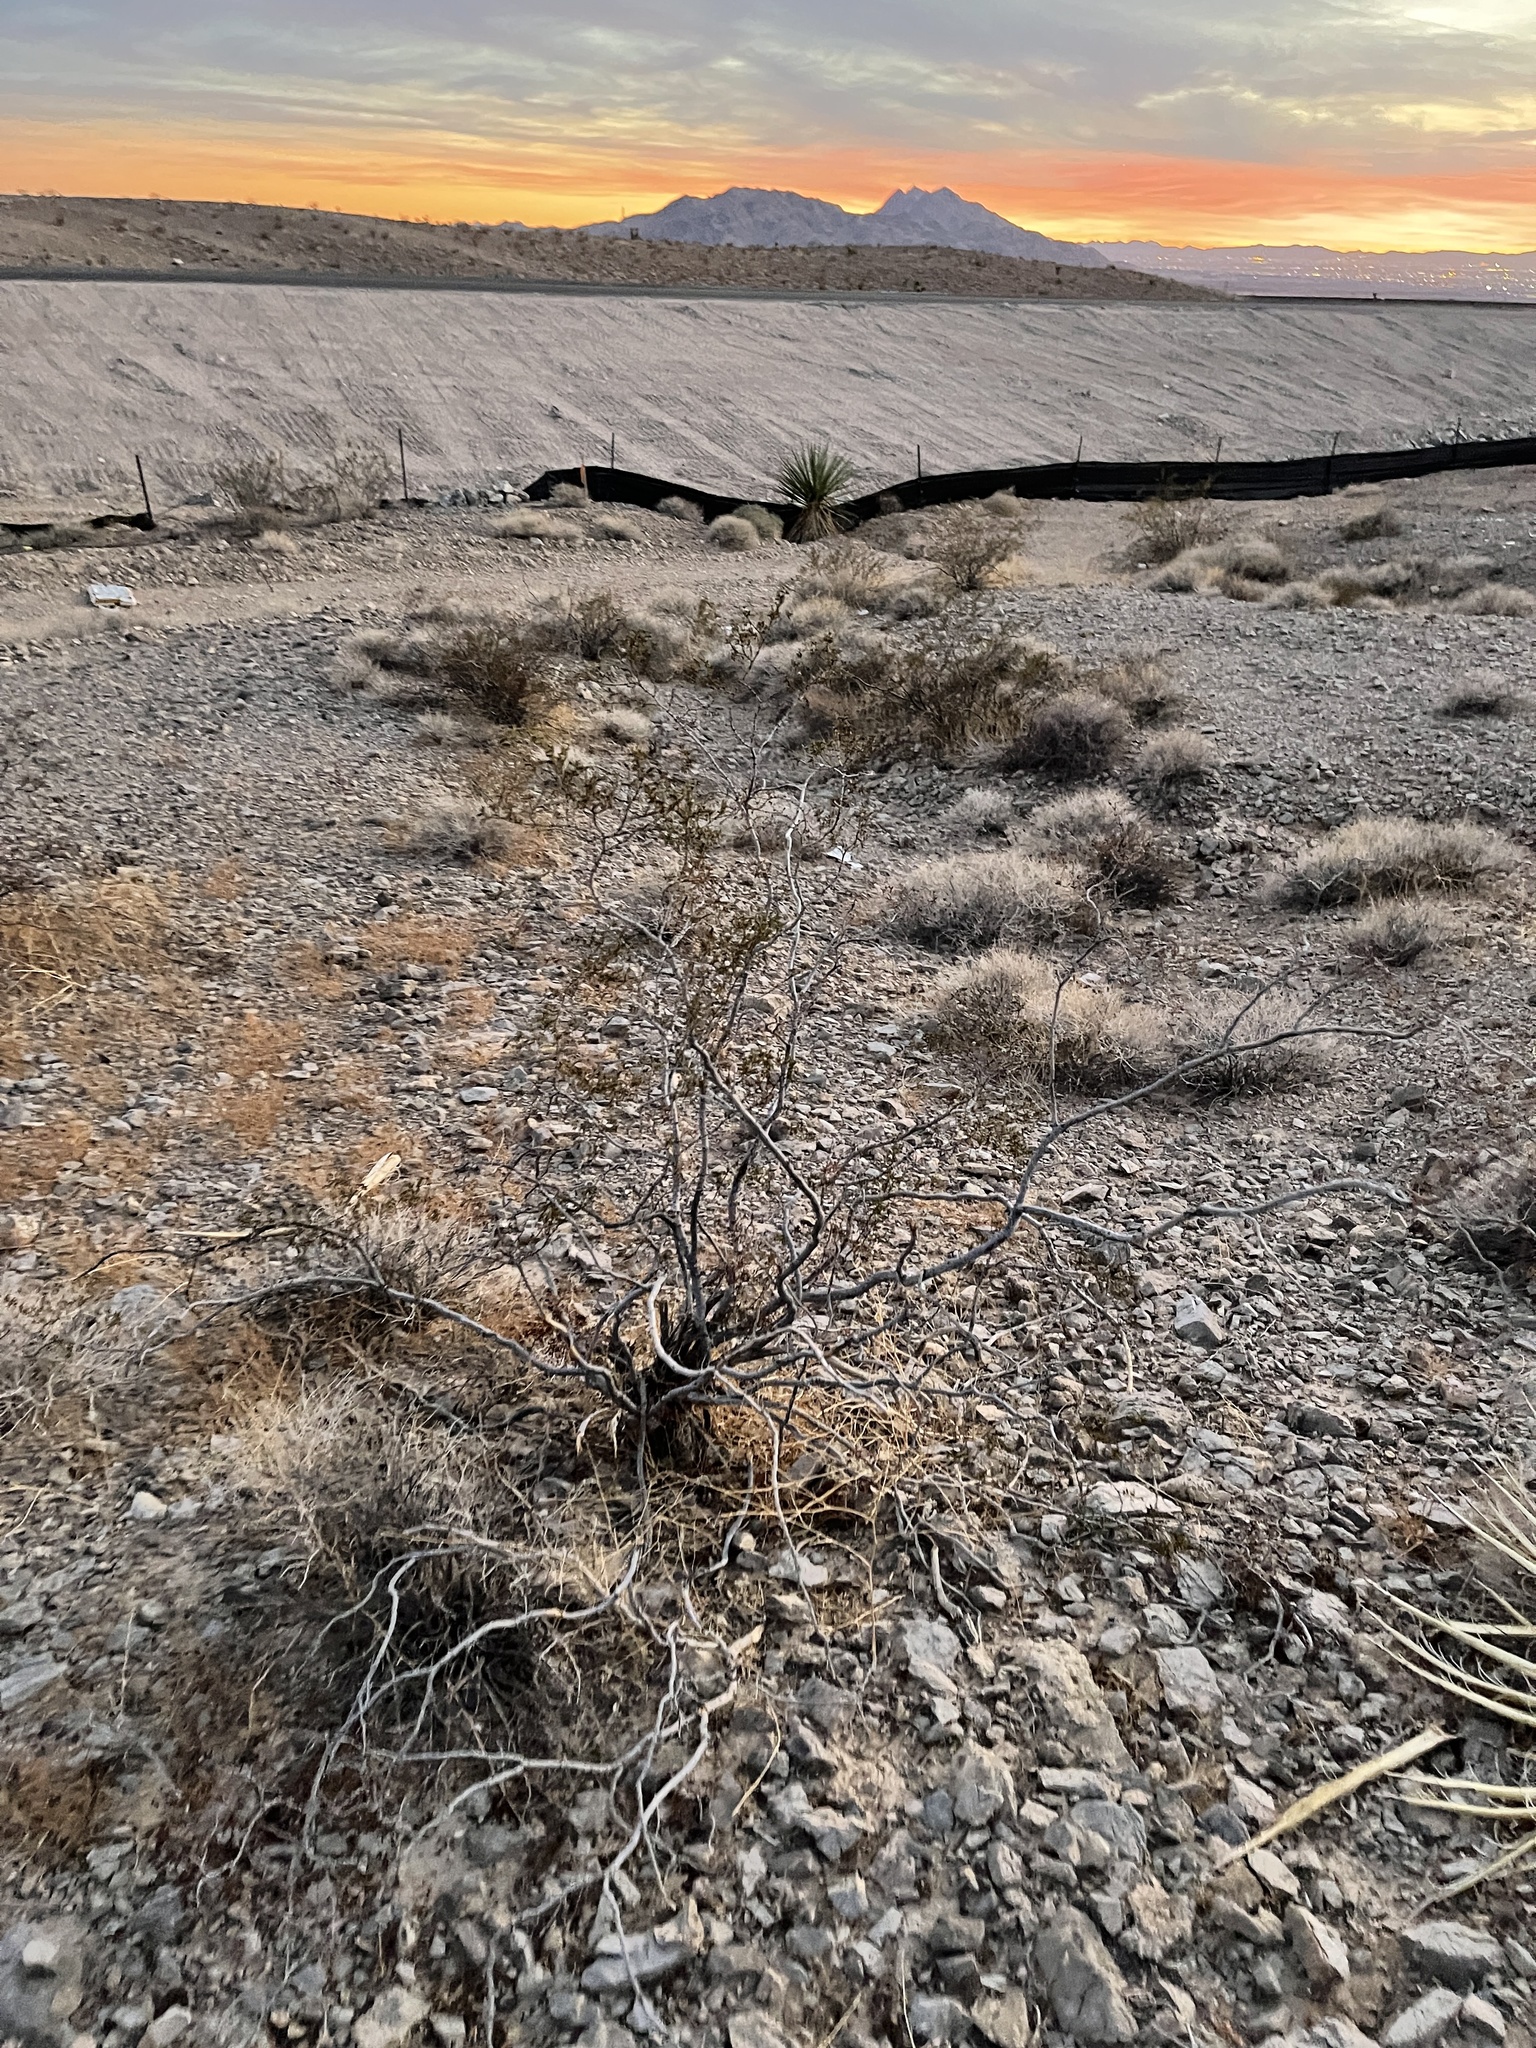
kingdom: Plantae
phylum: Tracheophyta
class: Magnoliopsida
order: Zygophyllales
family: Zygophyllaceae
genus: Larrea
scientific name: Larrea tridentata
